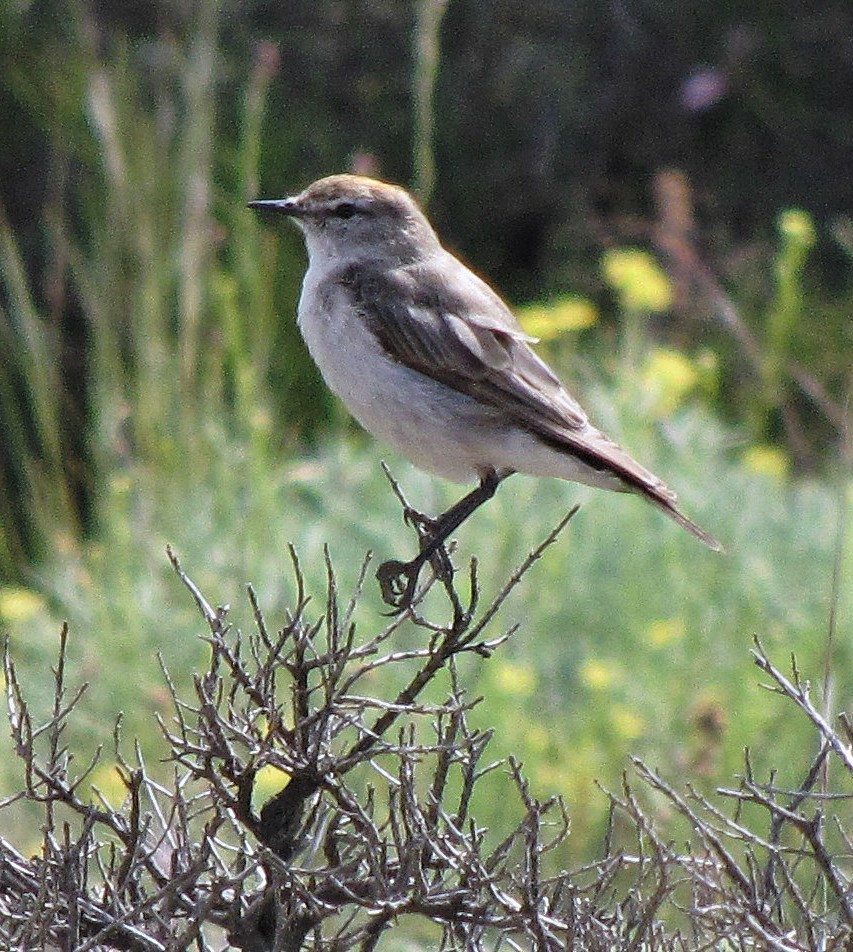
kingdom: Animalia
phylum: Chordata
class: Aves
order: Passeriformes
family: Tyrannidae
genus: Muscisaxicola
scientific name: Muscisaxicola albilora
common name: White-browed ground tyrant
